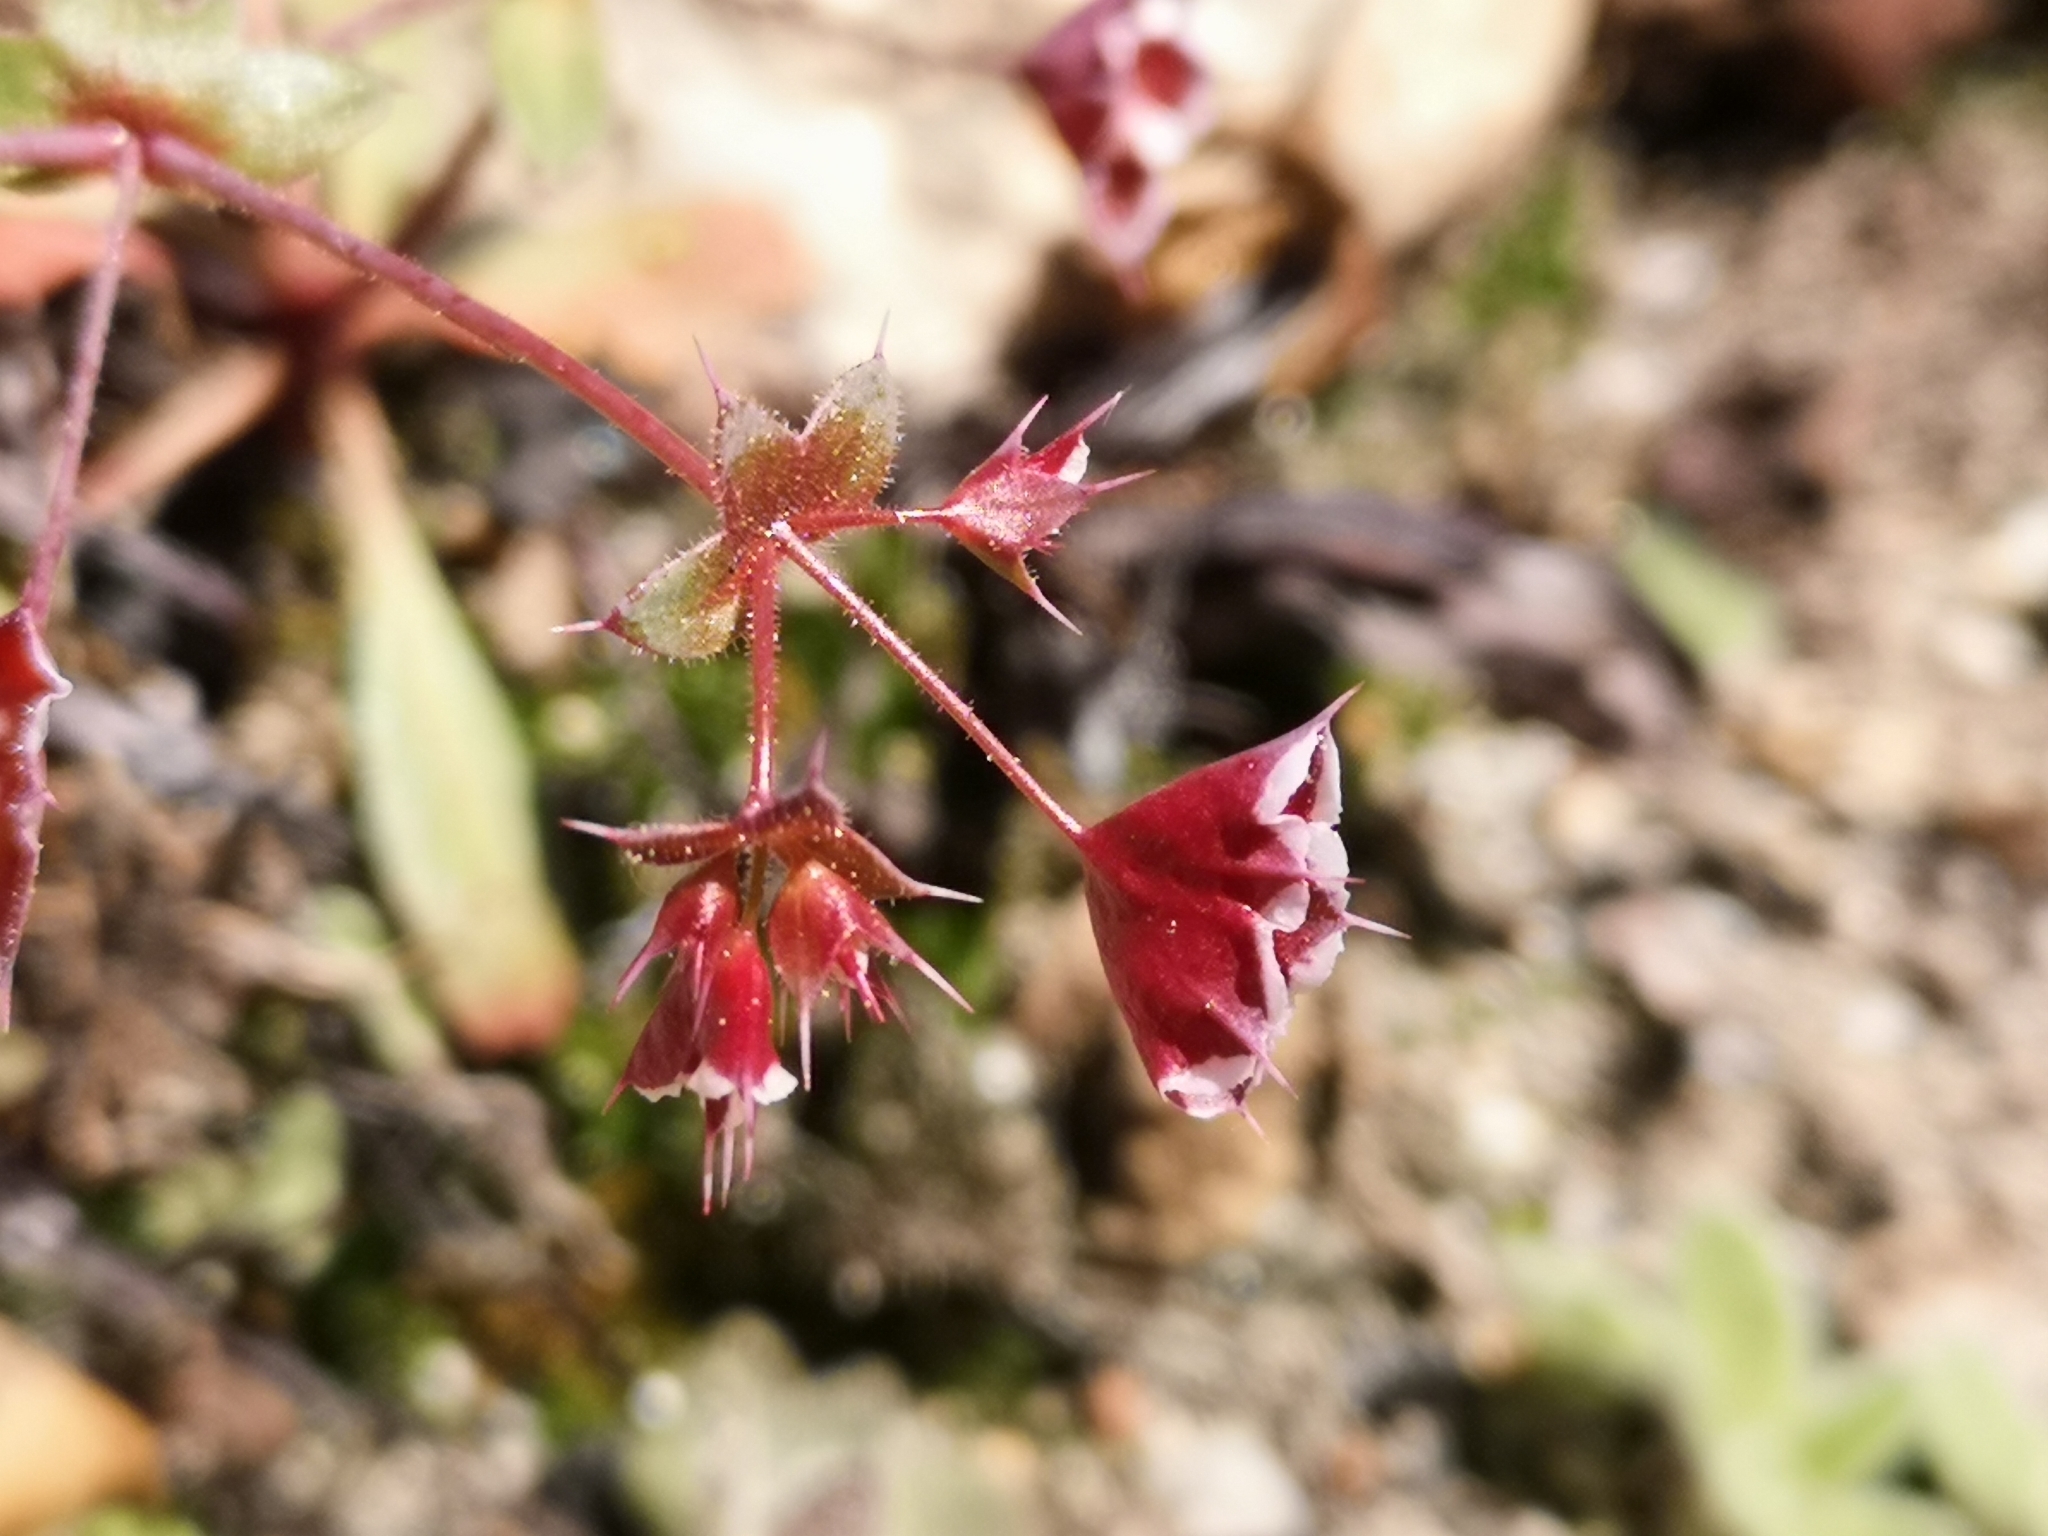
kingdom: Plantae
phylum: Tracheophyta
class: Magnoliopsida
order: Caryophyllales
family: Polygonaceae
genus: Sidotheca
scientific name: Sidotheca emarginata
